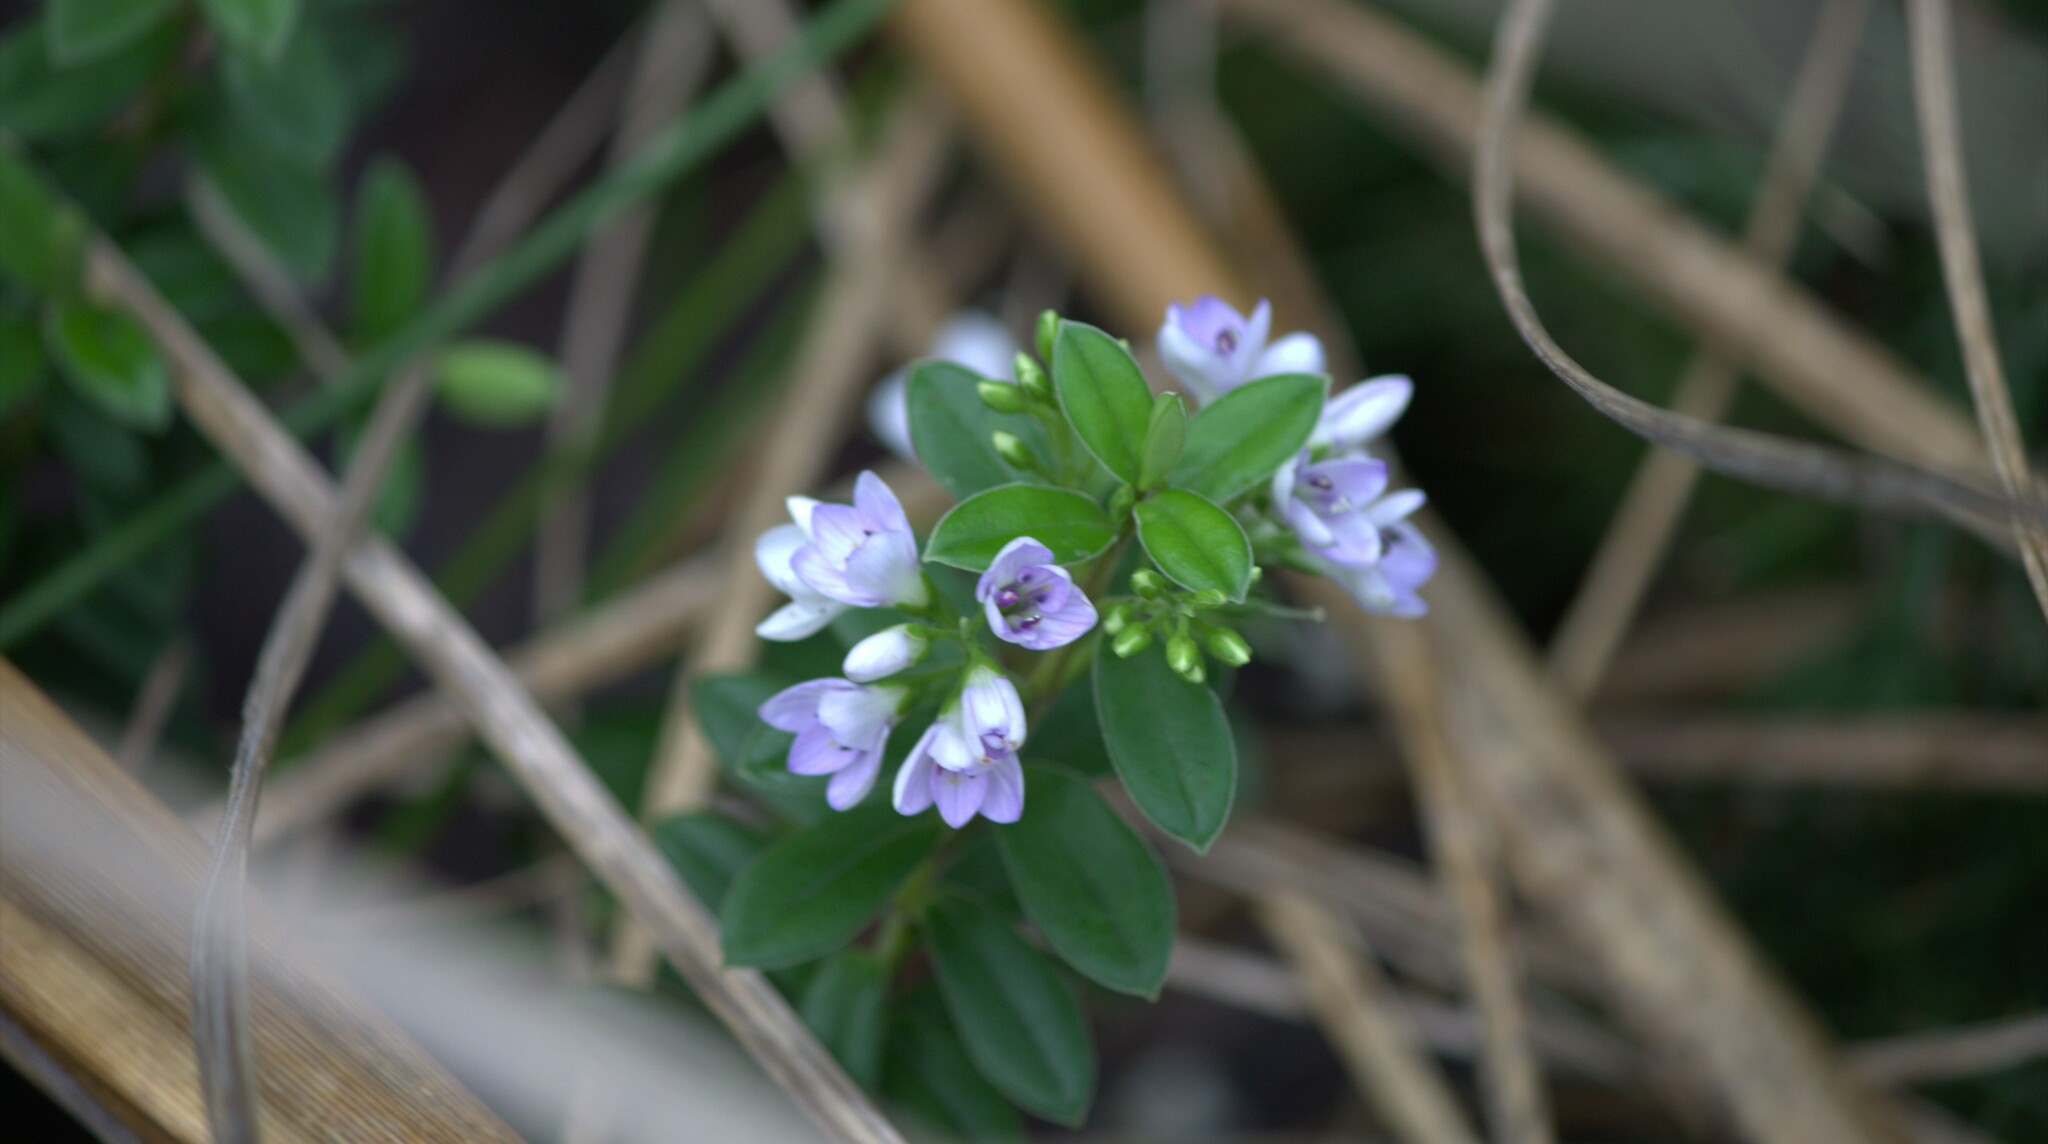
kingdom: Plantae
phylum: Tracheophyta
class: Magnoliopsida
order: Lamiales
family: Plantaginaceae
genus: Veronica
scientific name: Veronica elliptica
